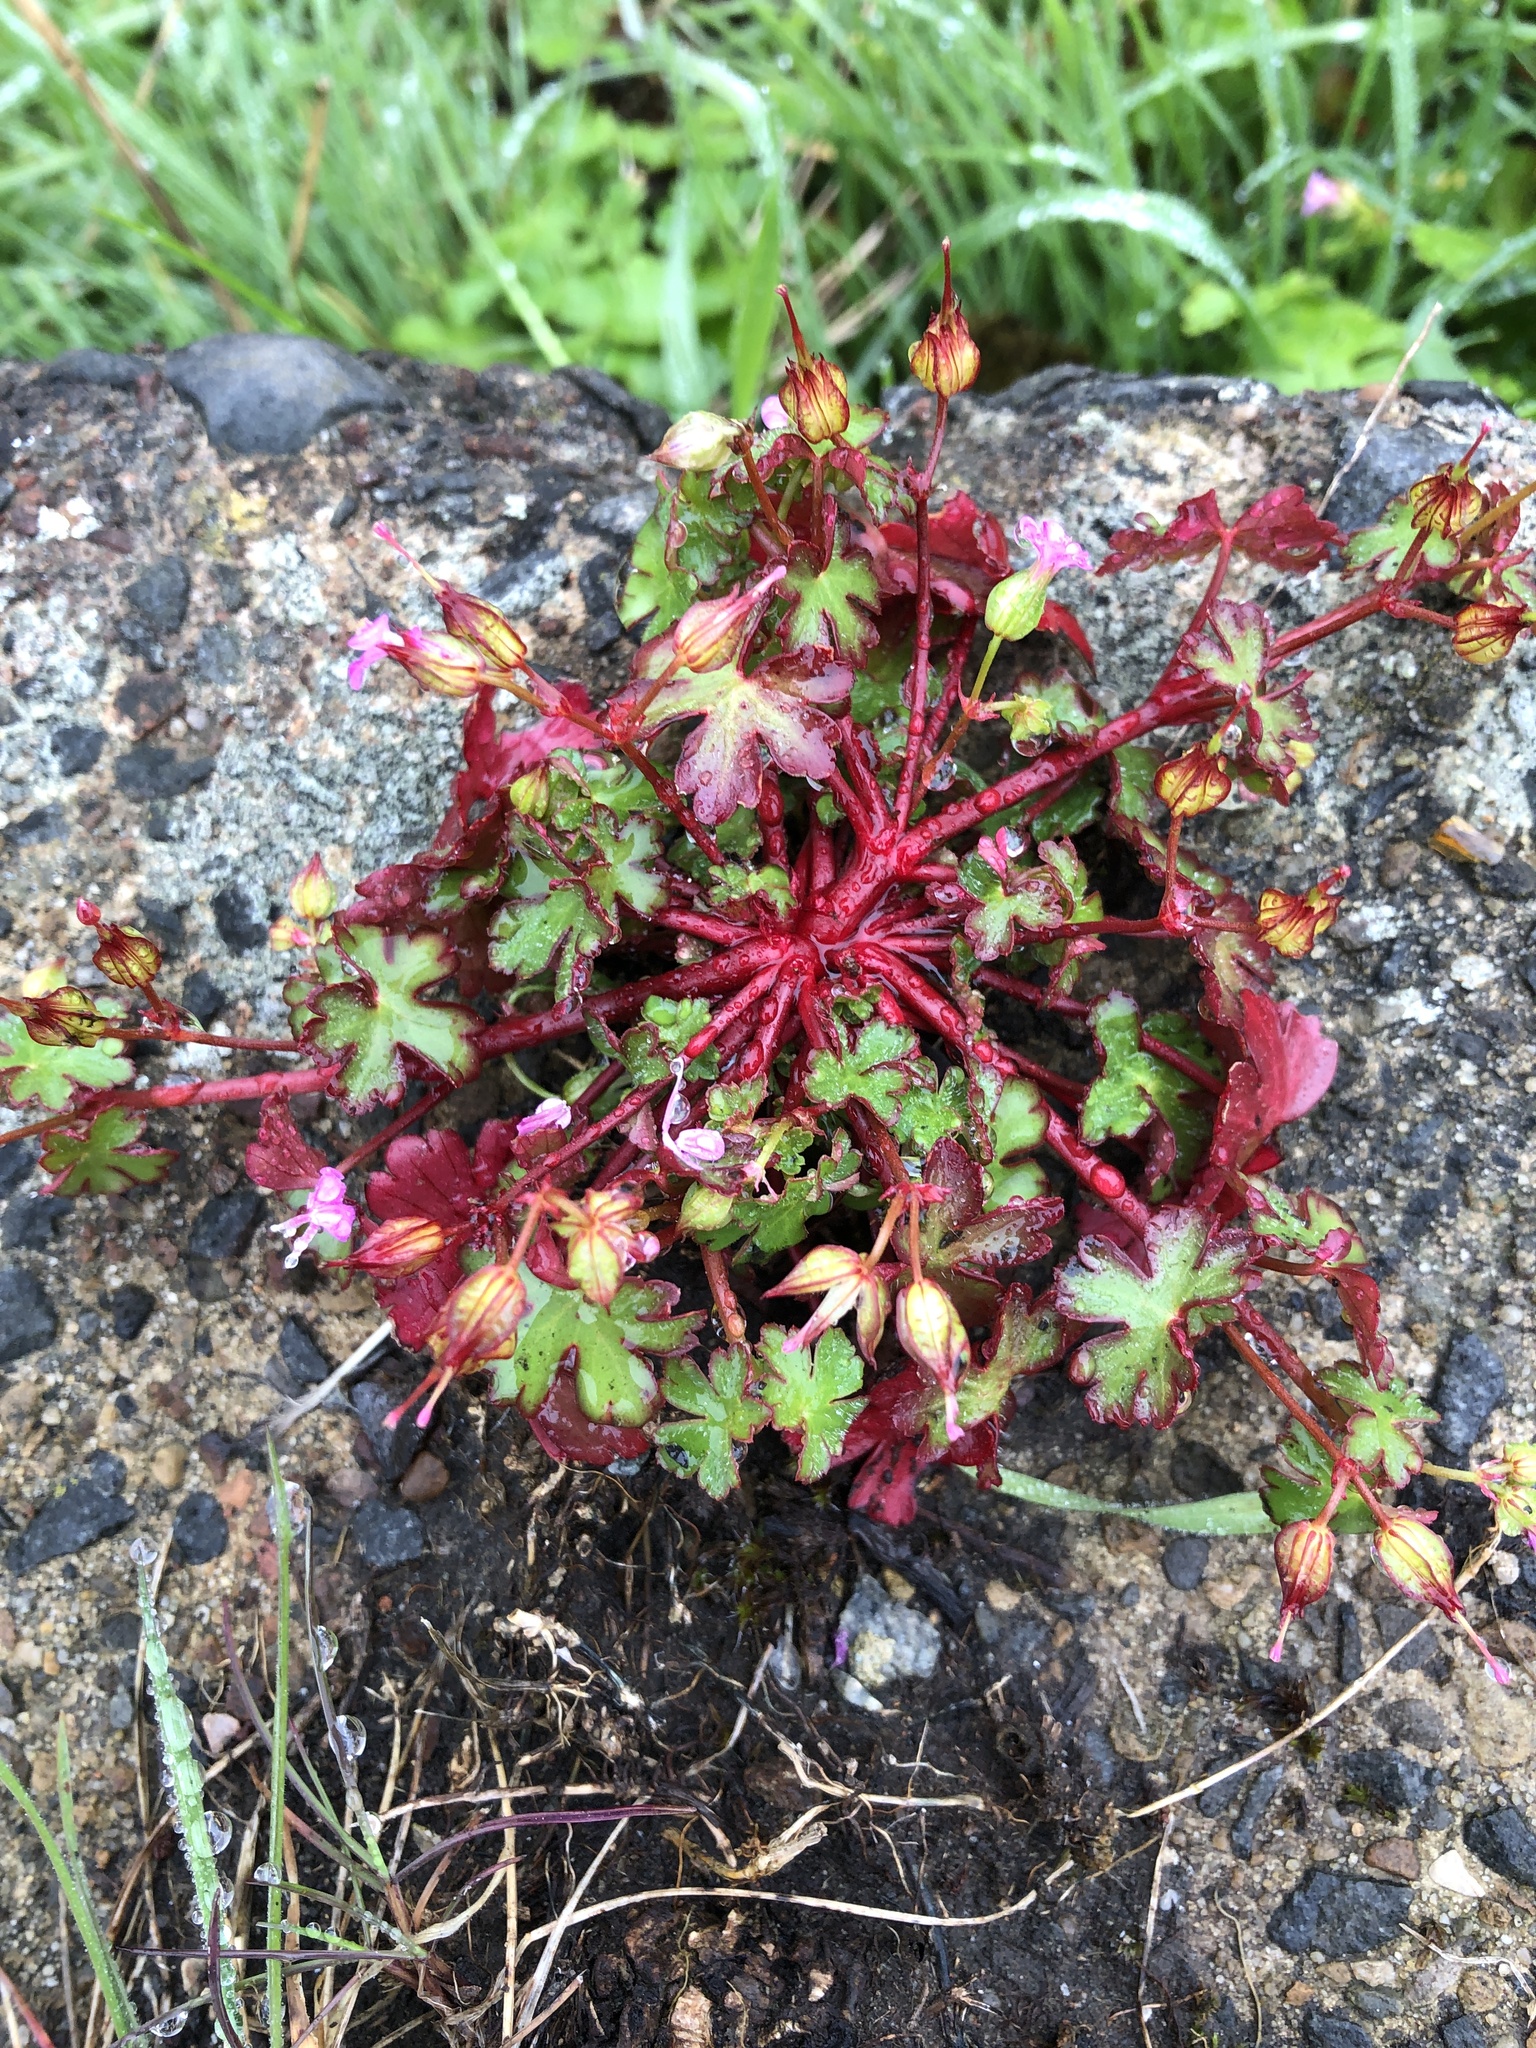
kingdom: Plantae
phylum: Tracheophyta
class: Magnoliopsida
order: Geraniales
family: Geraniaceae
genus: Geranium
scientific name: Geranium lucidum
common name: Shining crane's-bill
